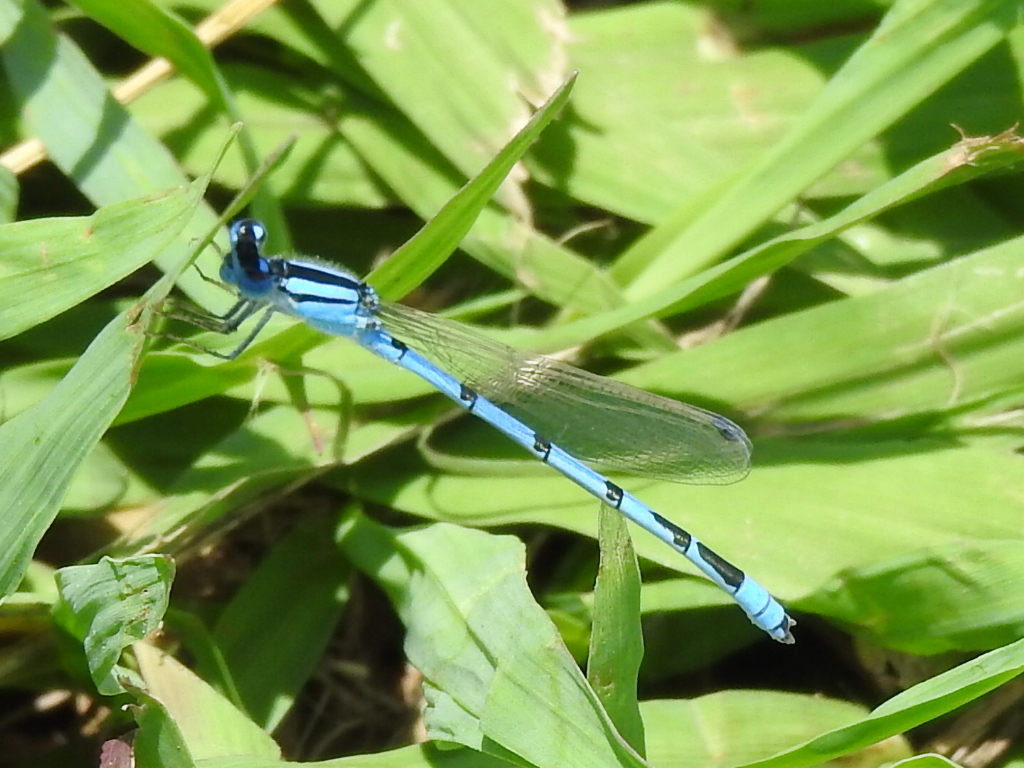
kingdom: Animalia
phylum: Arthropoda
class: Insecta
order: Odonata
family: Coenagrionidae
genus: Enallagma
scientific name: Enallagma civile
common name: Damselfly
